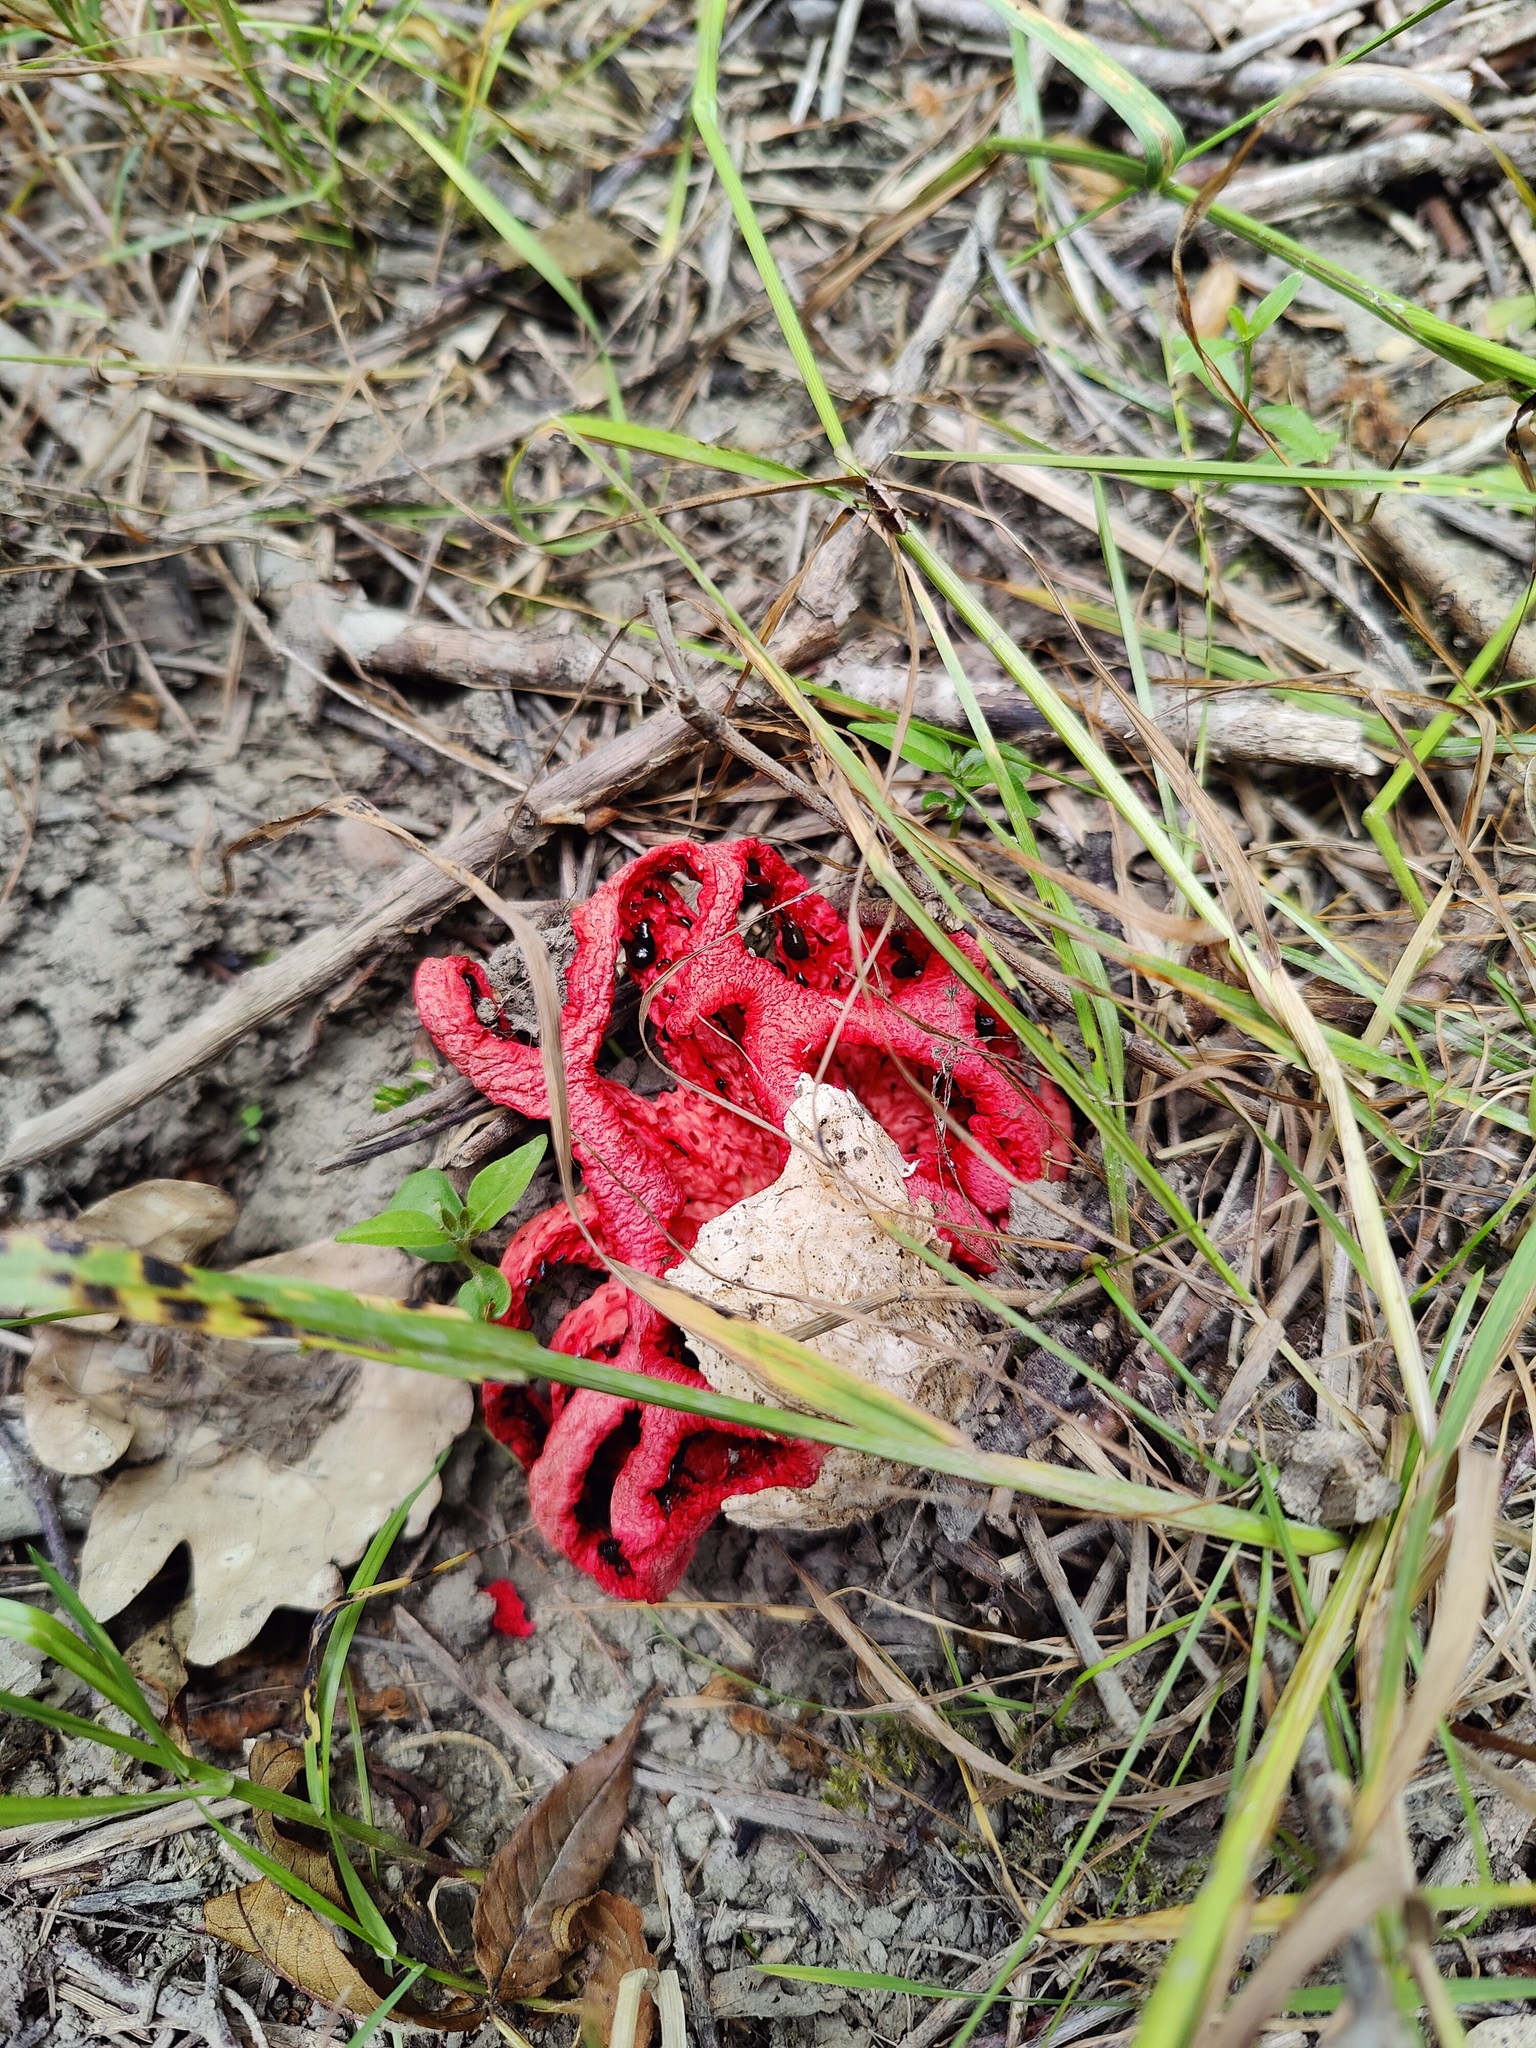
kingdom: Fungi
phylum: Basidiomycota
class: Agaricomycetes
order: Phallales
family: Phallaceae
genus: Clathrus
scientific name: Clathrus ruber
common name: Red cage
